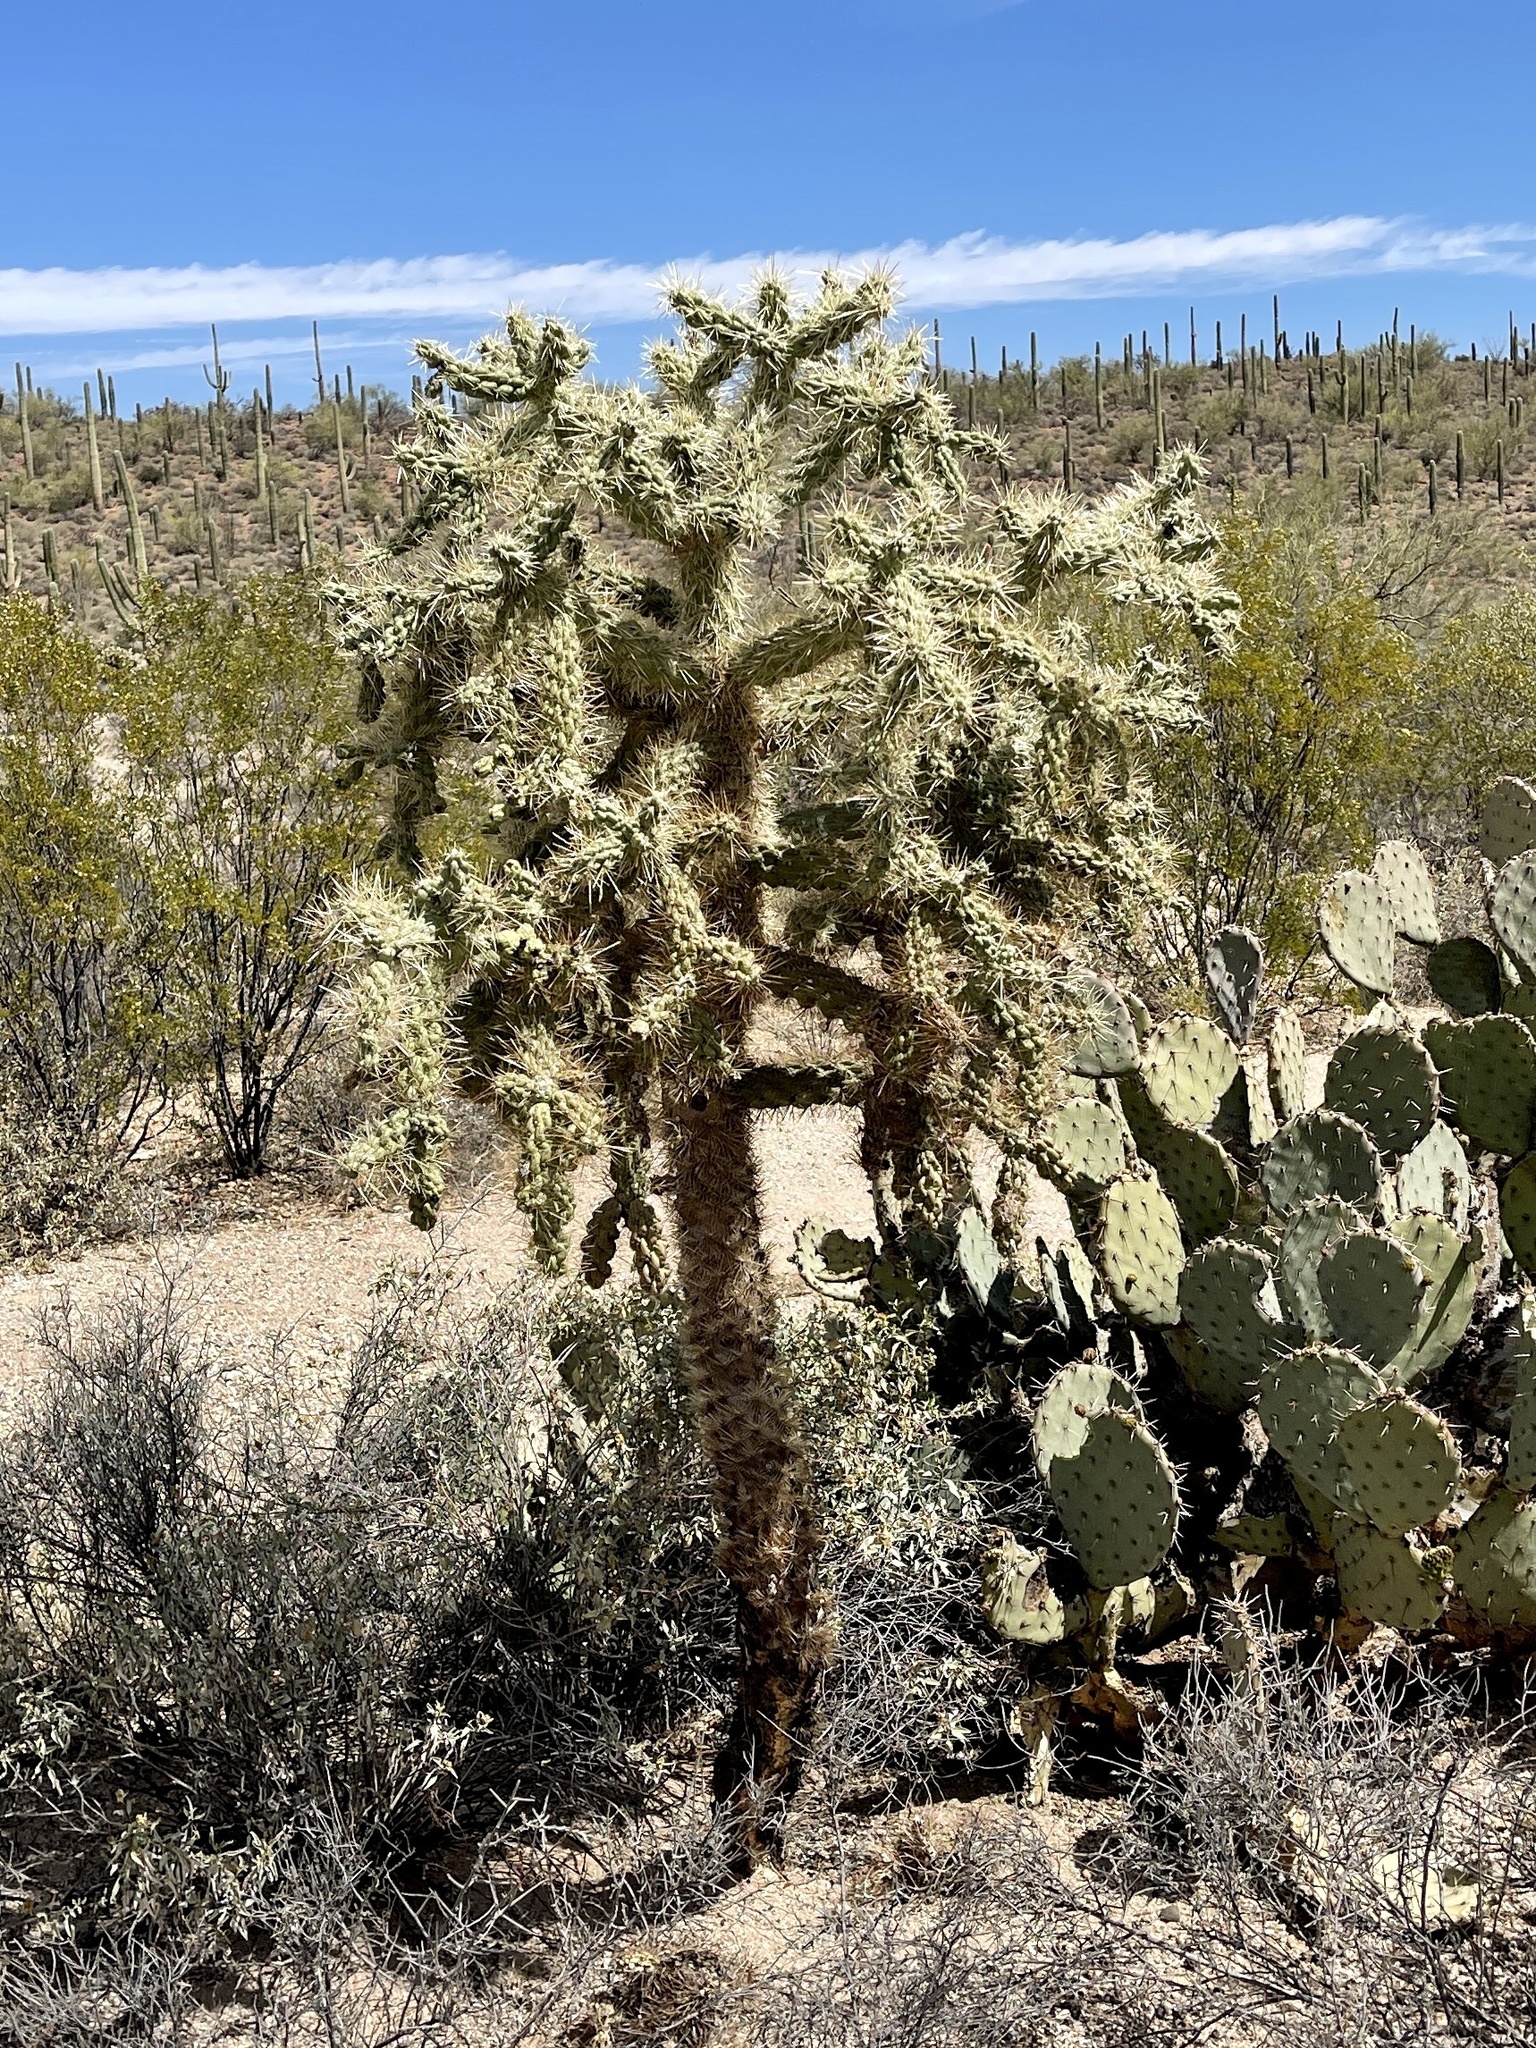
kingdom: Plantae
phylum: Tracheophyta
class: Magnoliopsida
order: Caryophyllales
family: Cactaceae
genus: Cylindropuntia
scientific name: Cylindropuntia fulgida
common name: Jumping cholla
